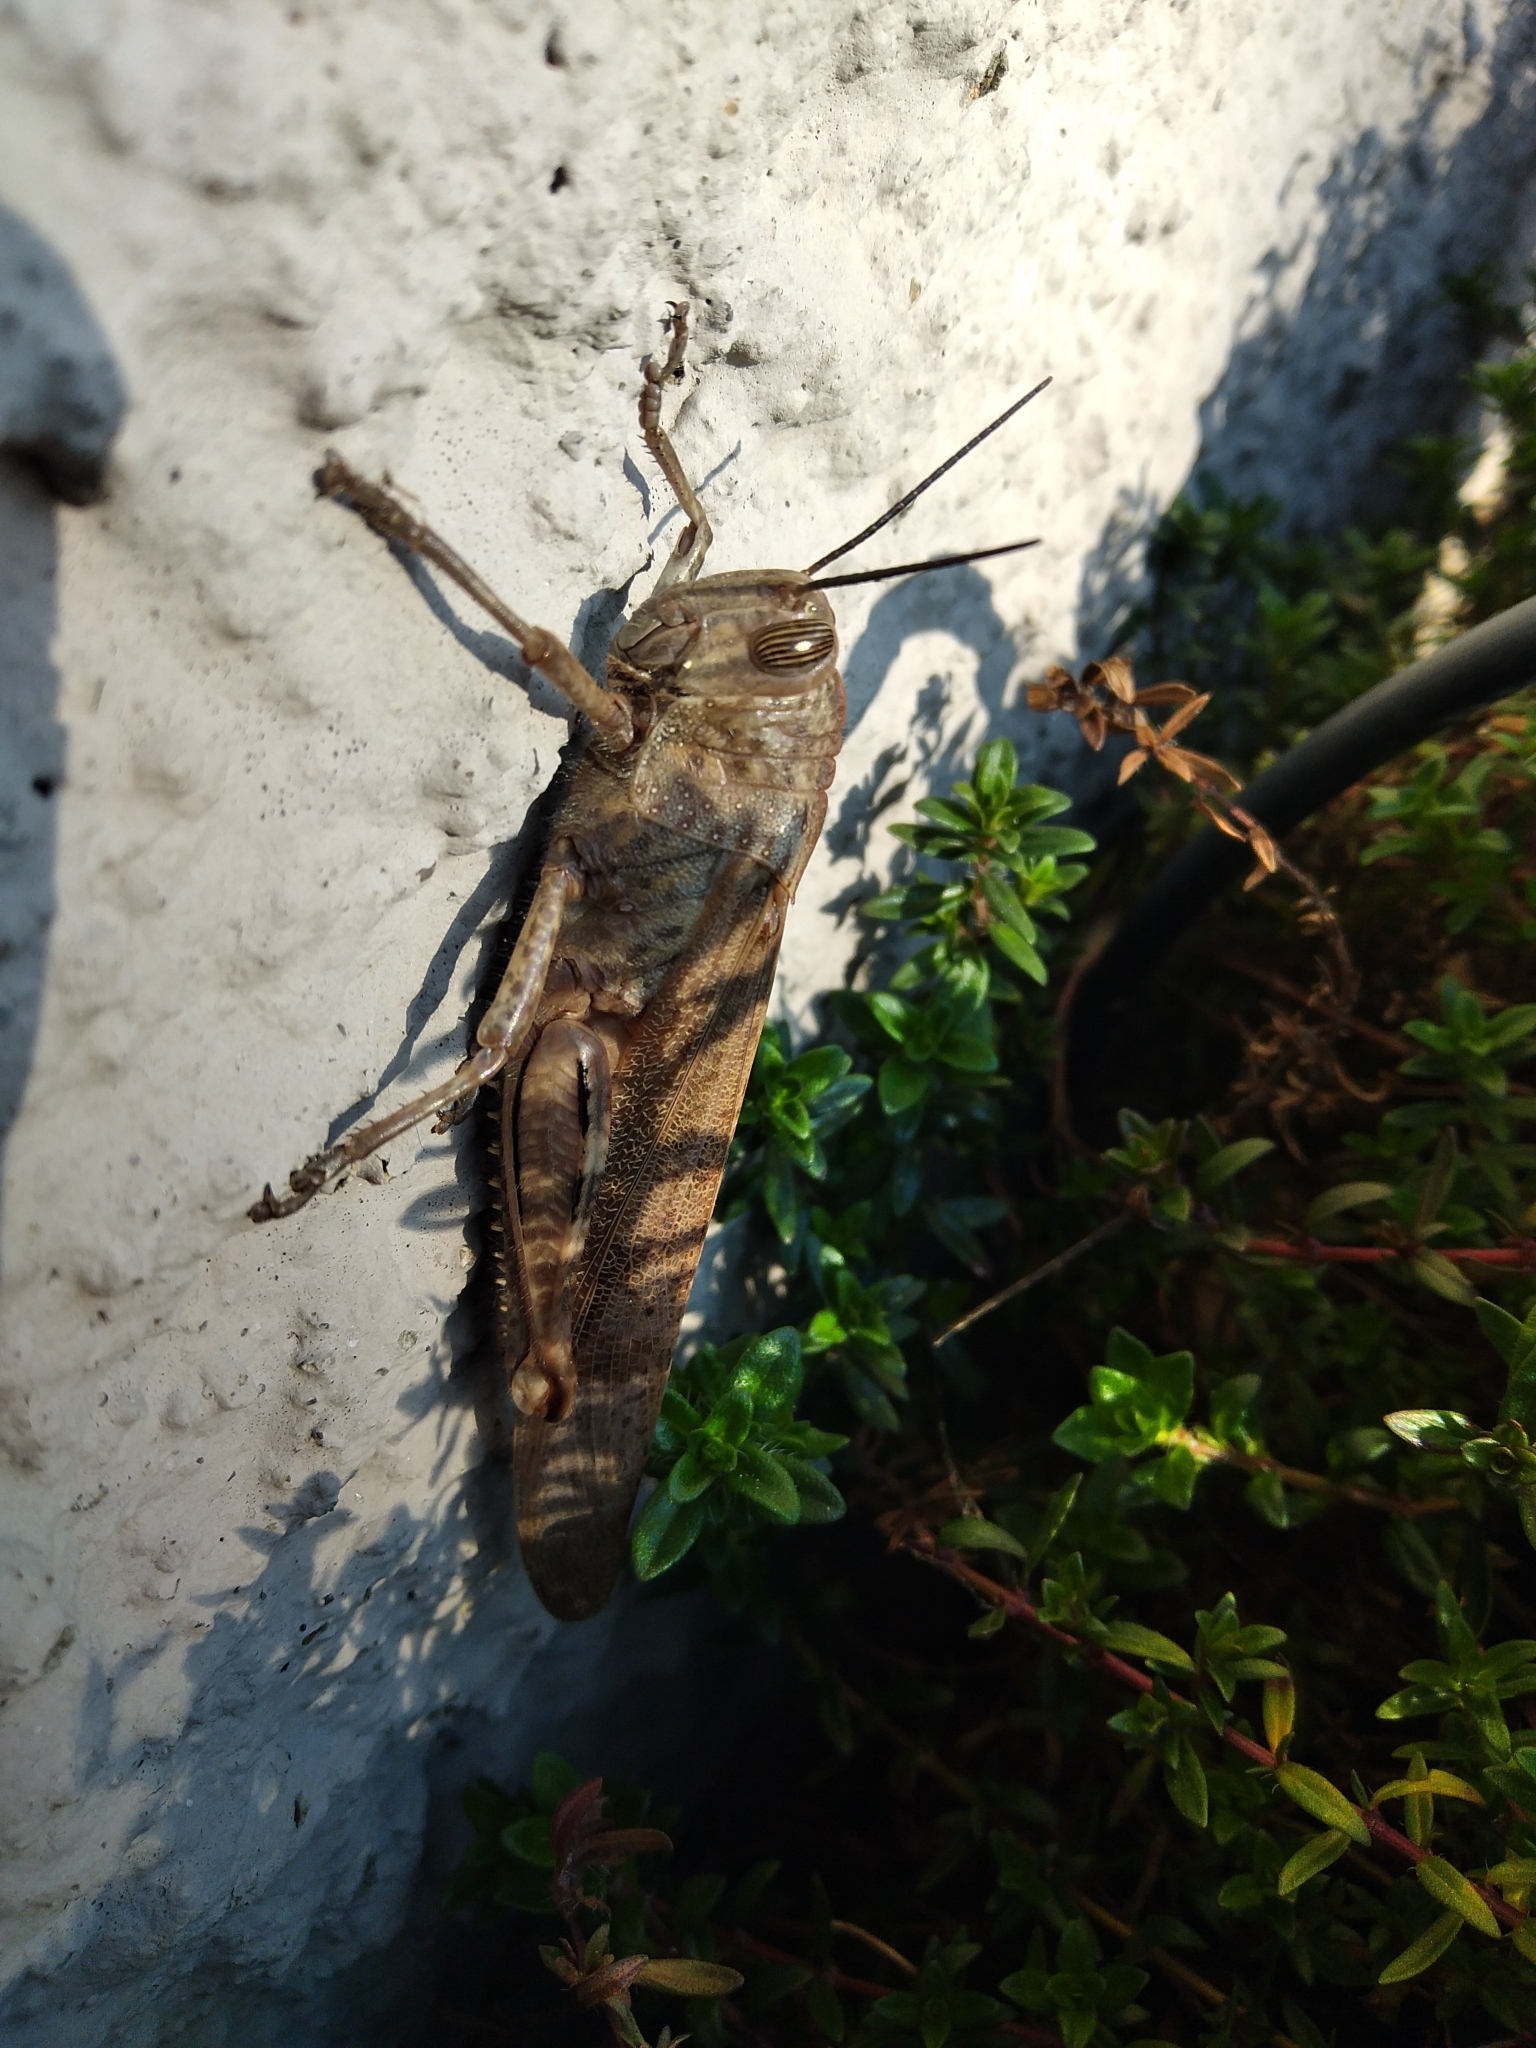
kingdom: Animalia
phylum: Arthropoda
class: Insecta
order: Orthoptera
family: Acrididae
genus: Anacridium
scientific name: Anacridium aegyptium
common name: Egyptian grasshopper
